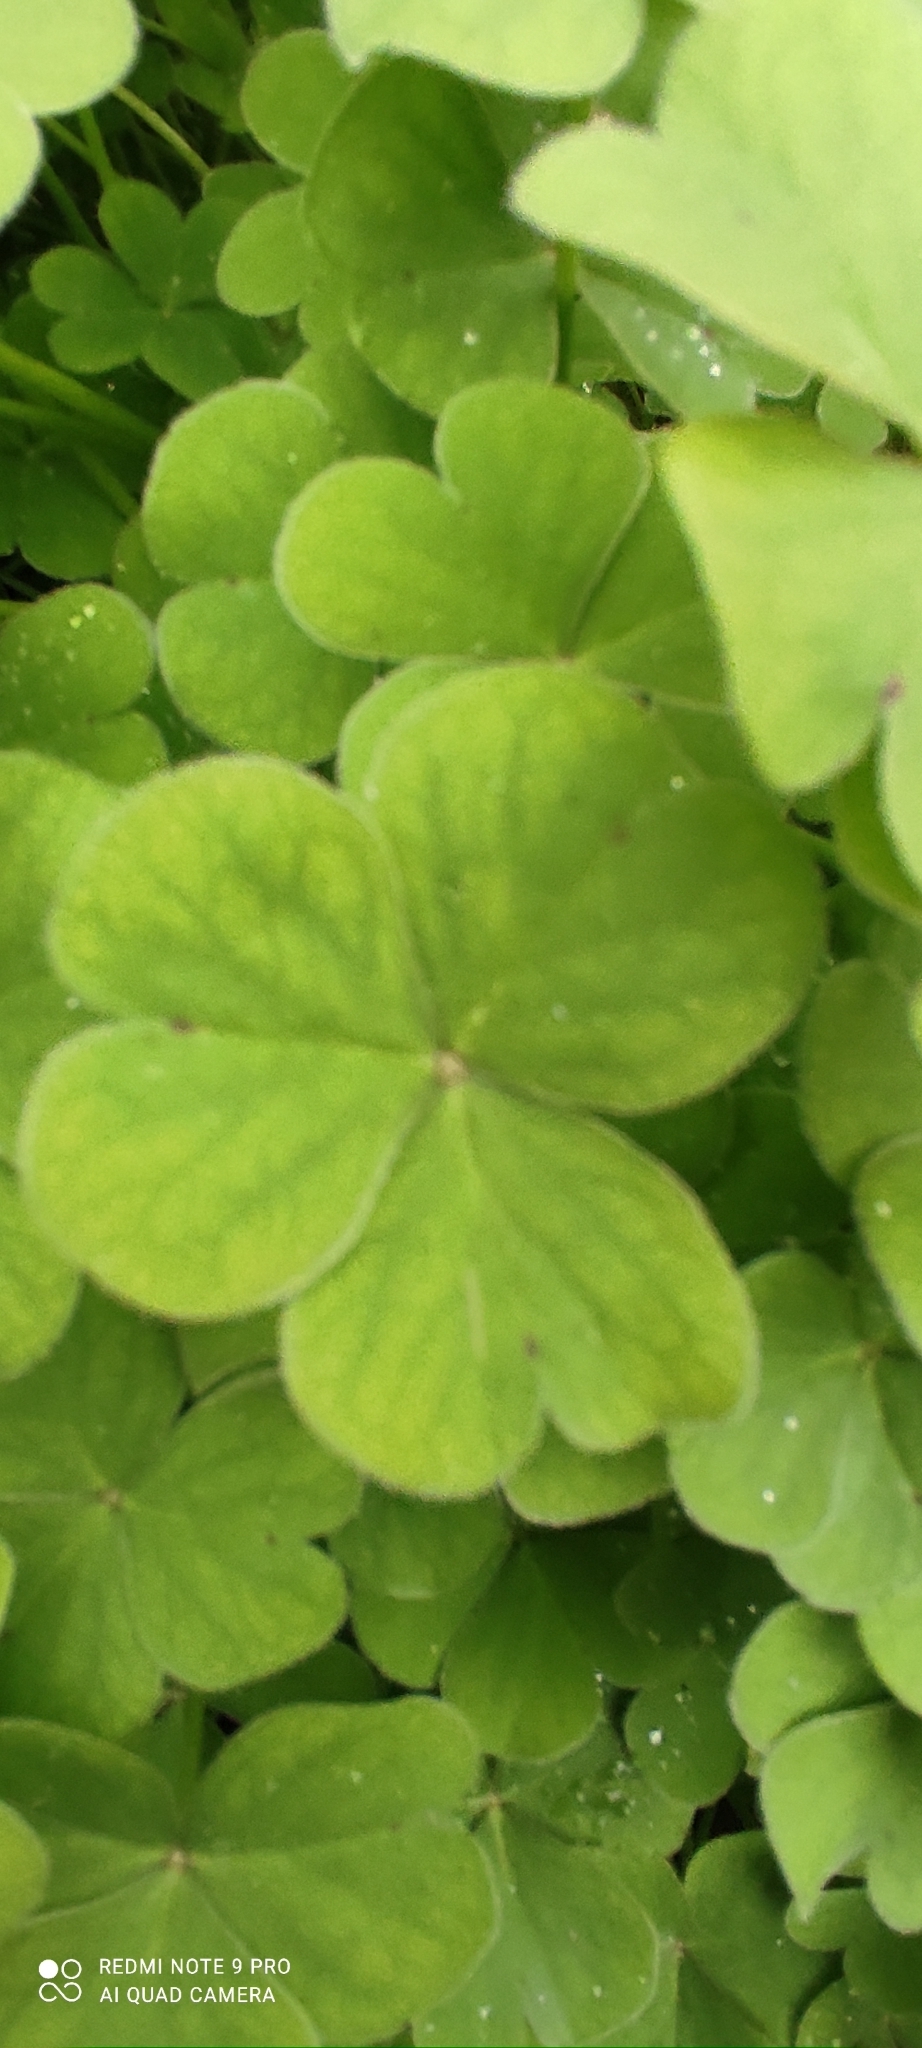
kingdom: Plantae
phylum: Tracheophyta
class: Magnoliopsida
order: Oxalidales
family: Oxalidaceae
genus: Oxalis
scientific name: Oxalis articulata
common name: Pink-sorrel
